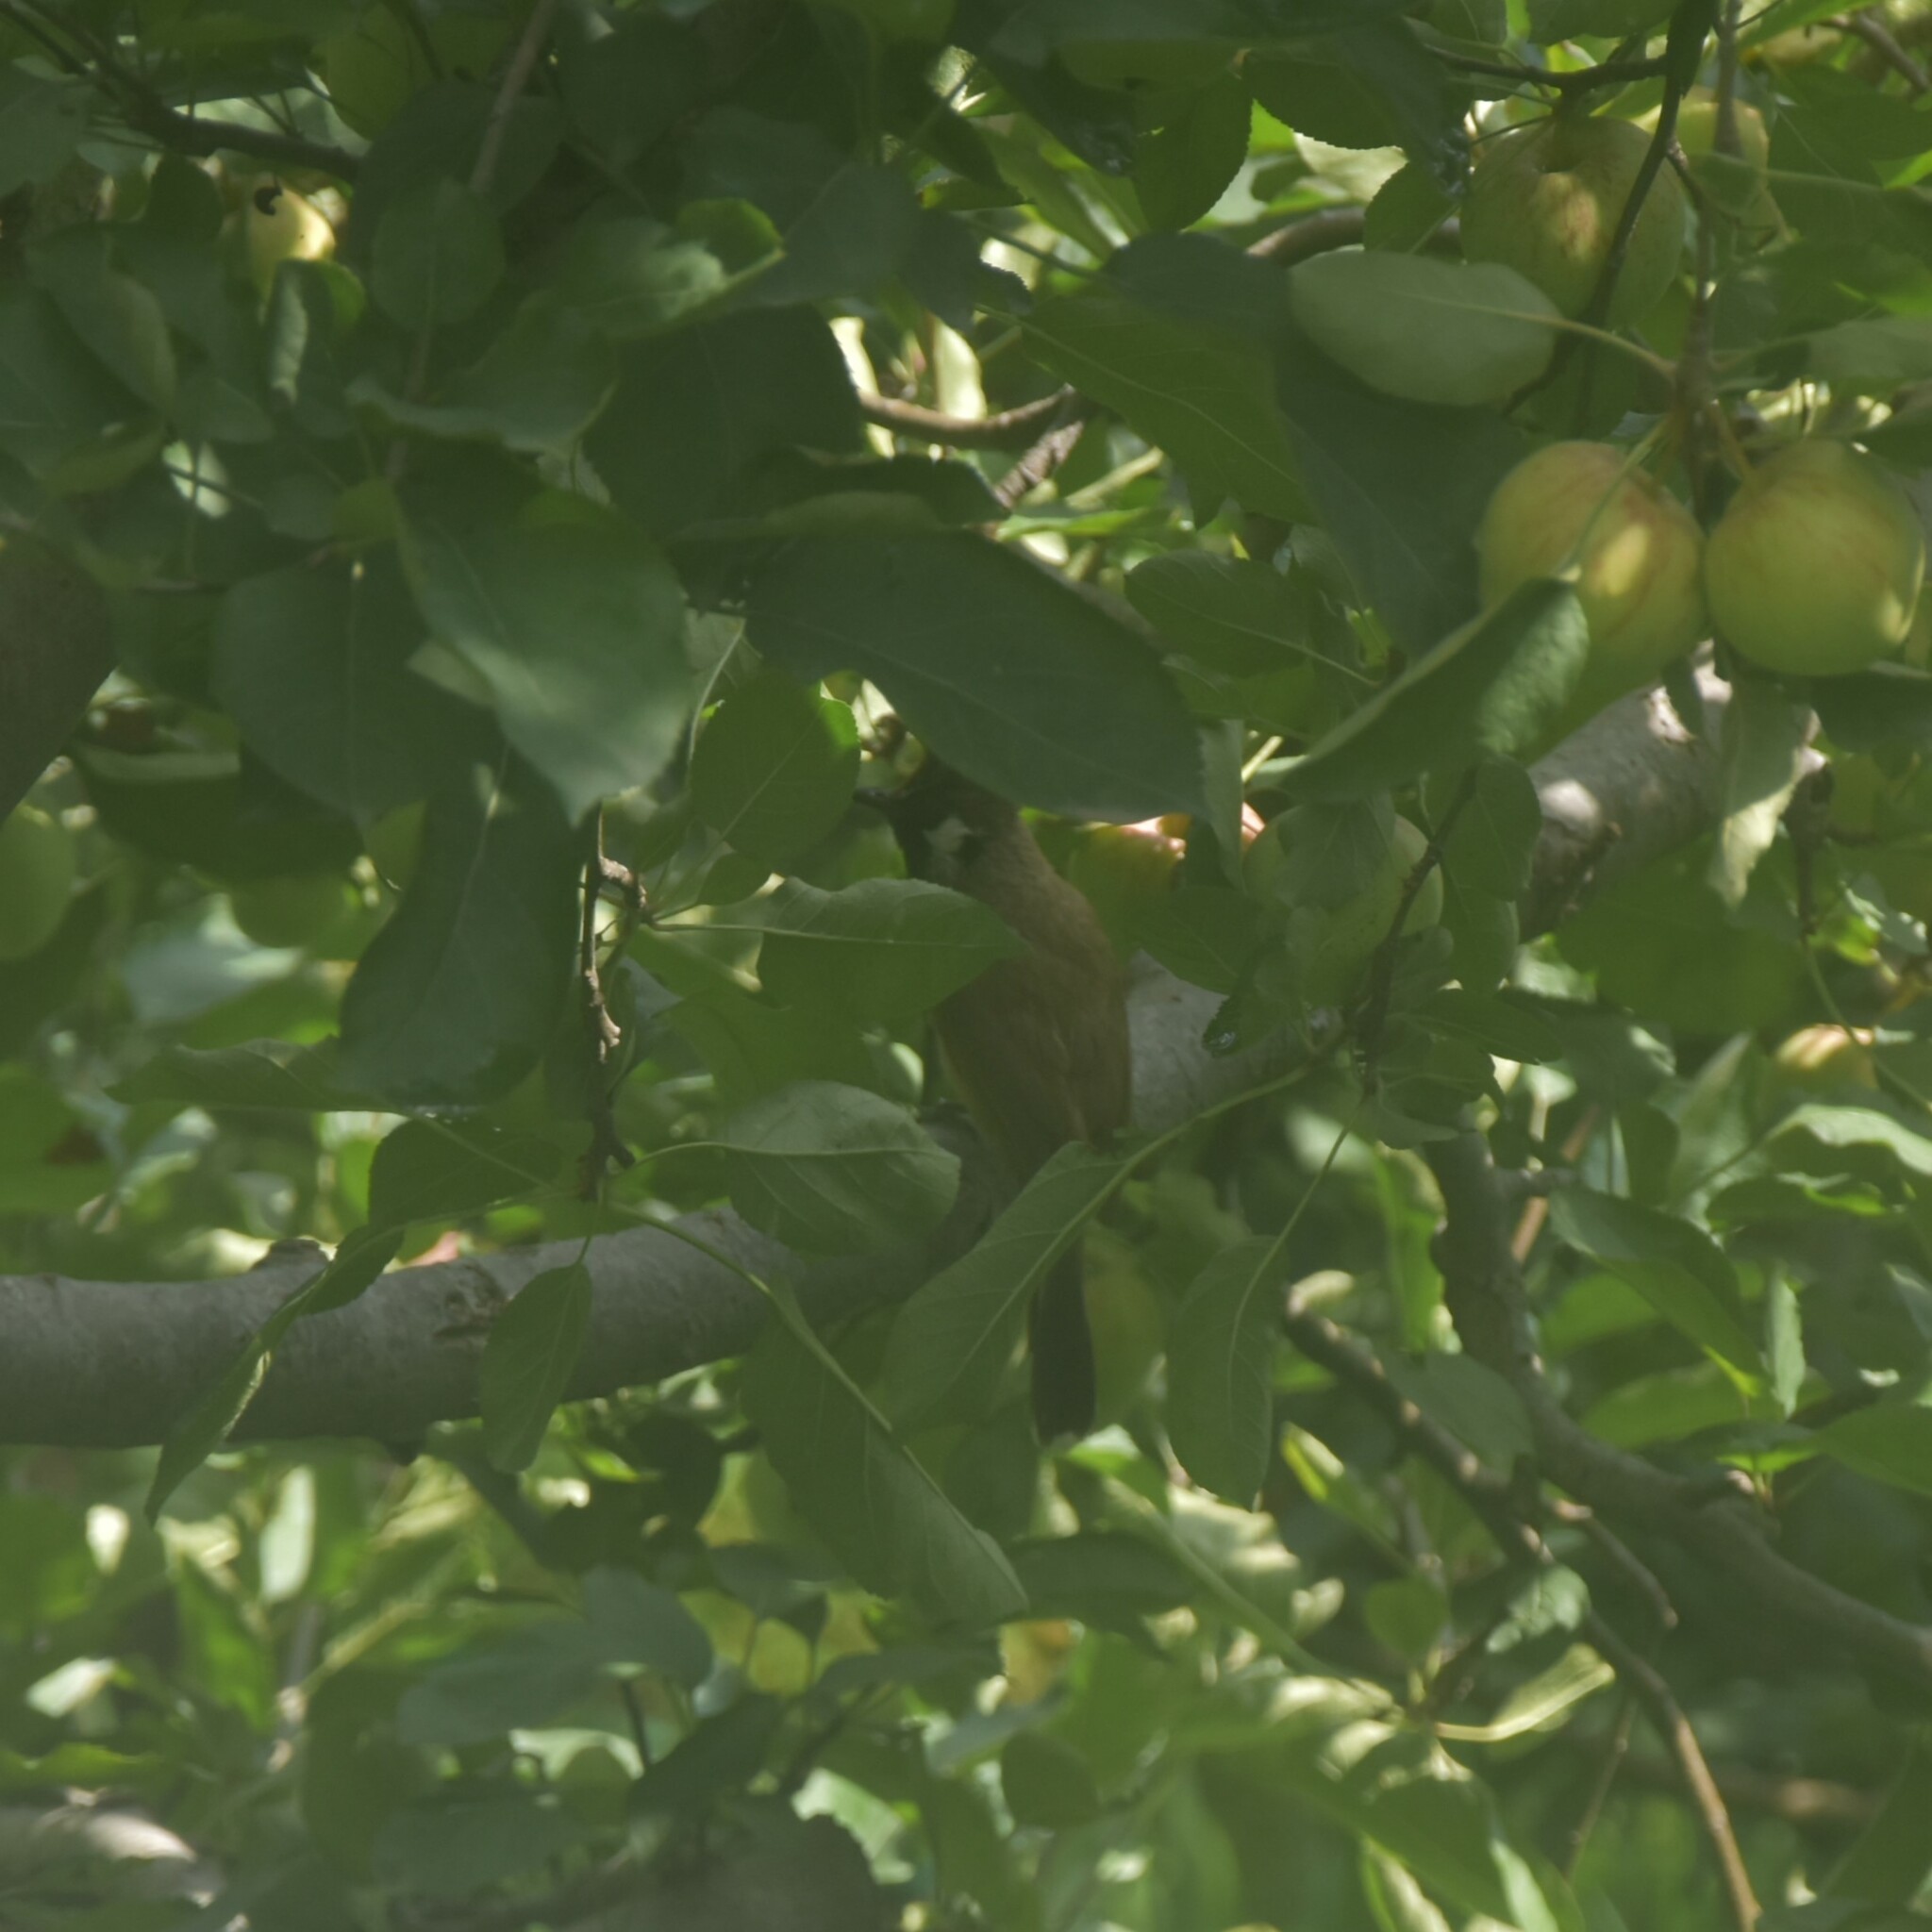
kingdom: Animalia
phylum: Chordata
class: Aves
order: Passeriformes
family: Pycnonotidae
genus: Pycnonotus
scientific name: Pycnonotus leucogenys
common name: Himalayan bulbul
